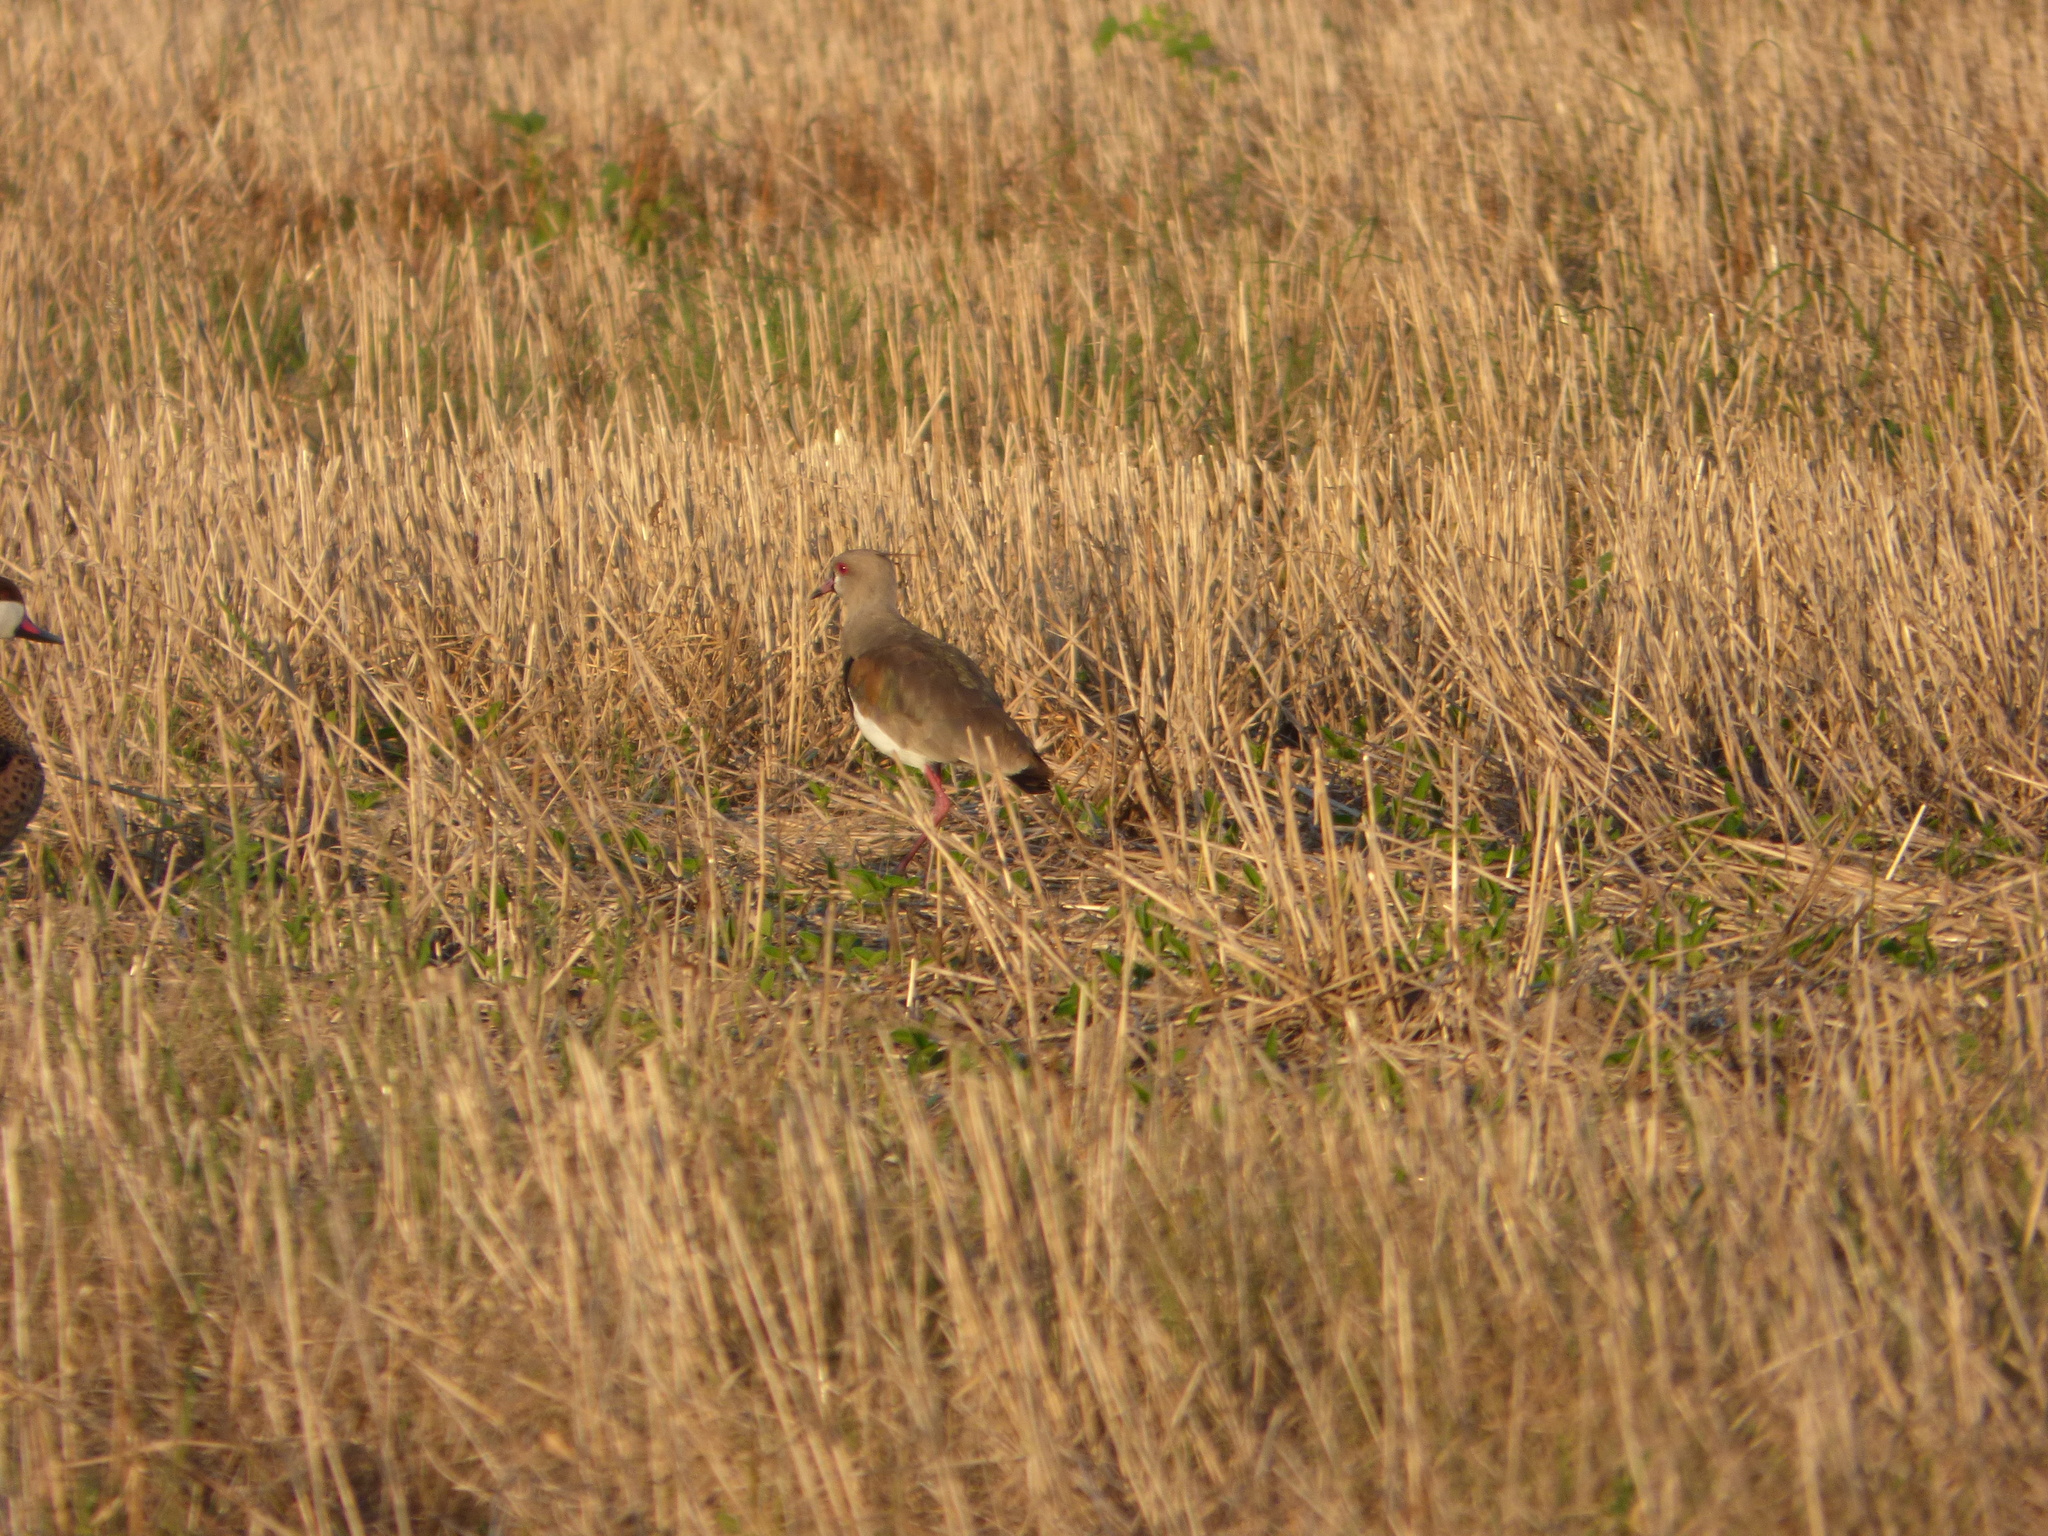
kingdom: Animalia
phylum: Chordata
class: Aves
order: Charadriiformes
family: Charadriidae
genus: Vanellus
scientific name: Vanellus chilensis
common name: Southern lapwing
